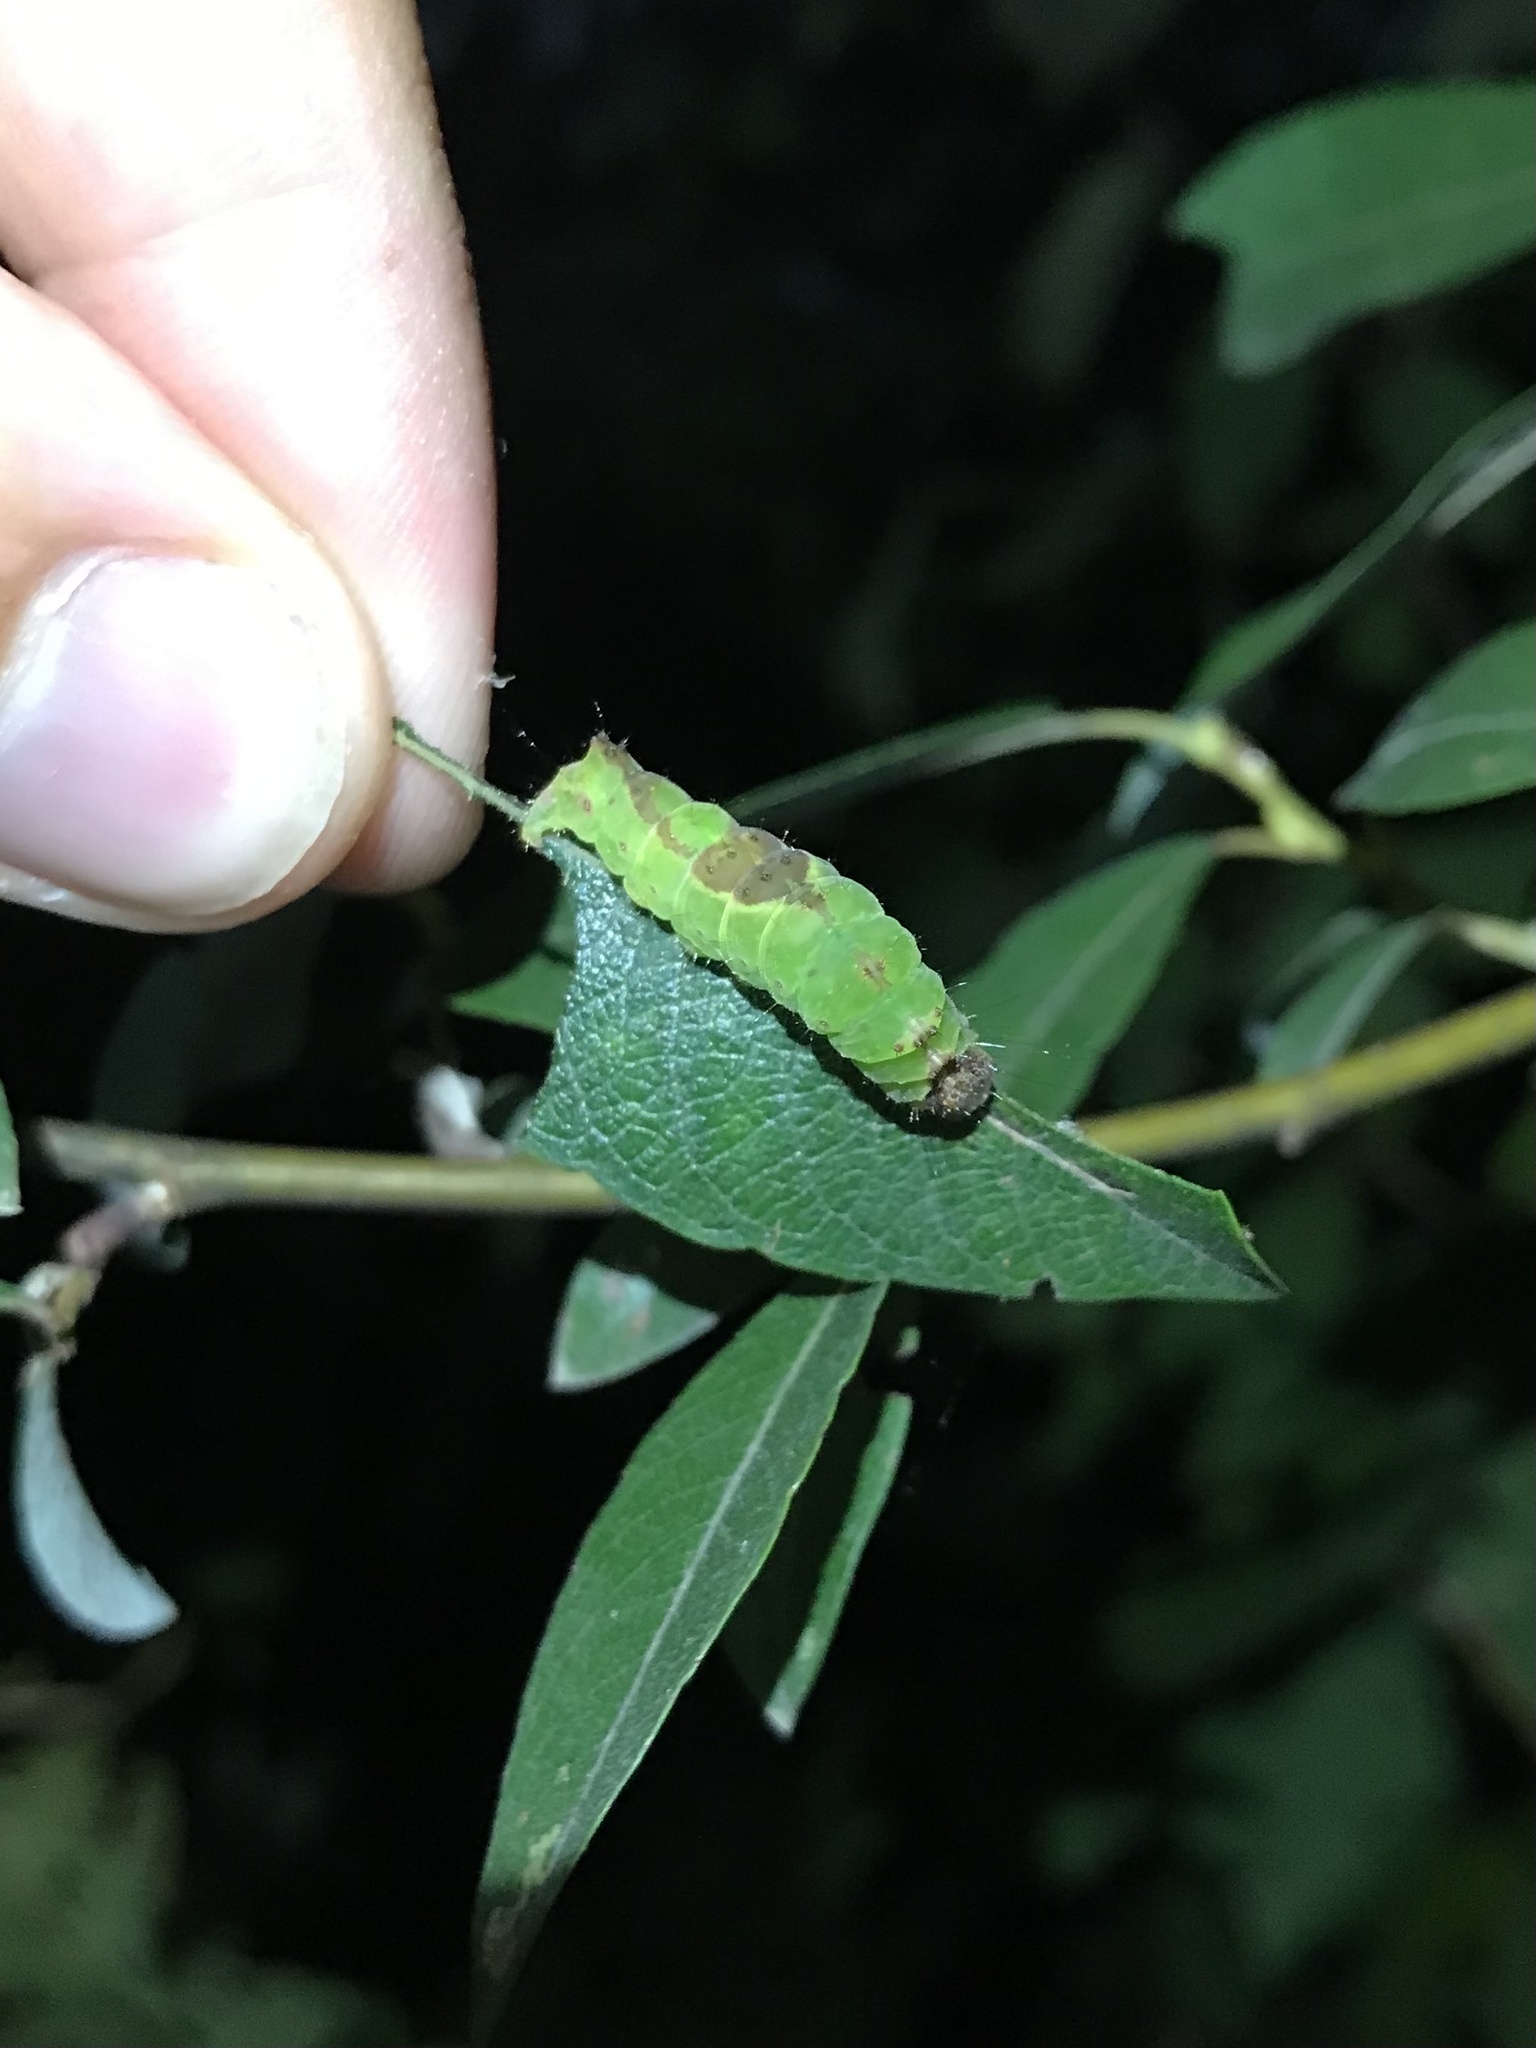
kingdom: Animalia
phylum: Arthropoda
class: Insecta
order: Lepidoptera
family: Noctuidae
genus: Acronicta
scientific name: Acronicta grisea
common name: Gray dagger
